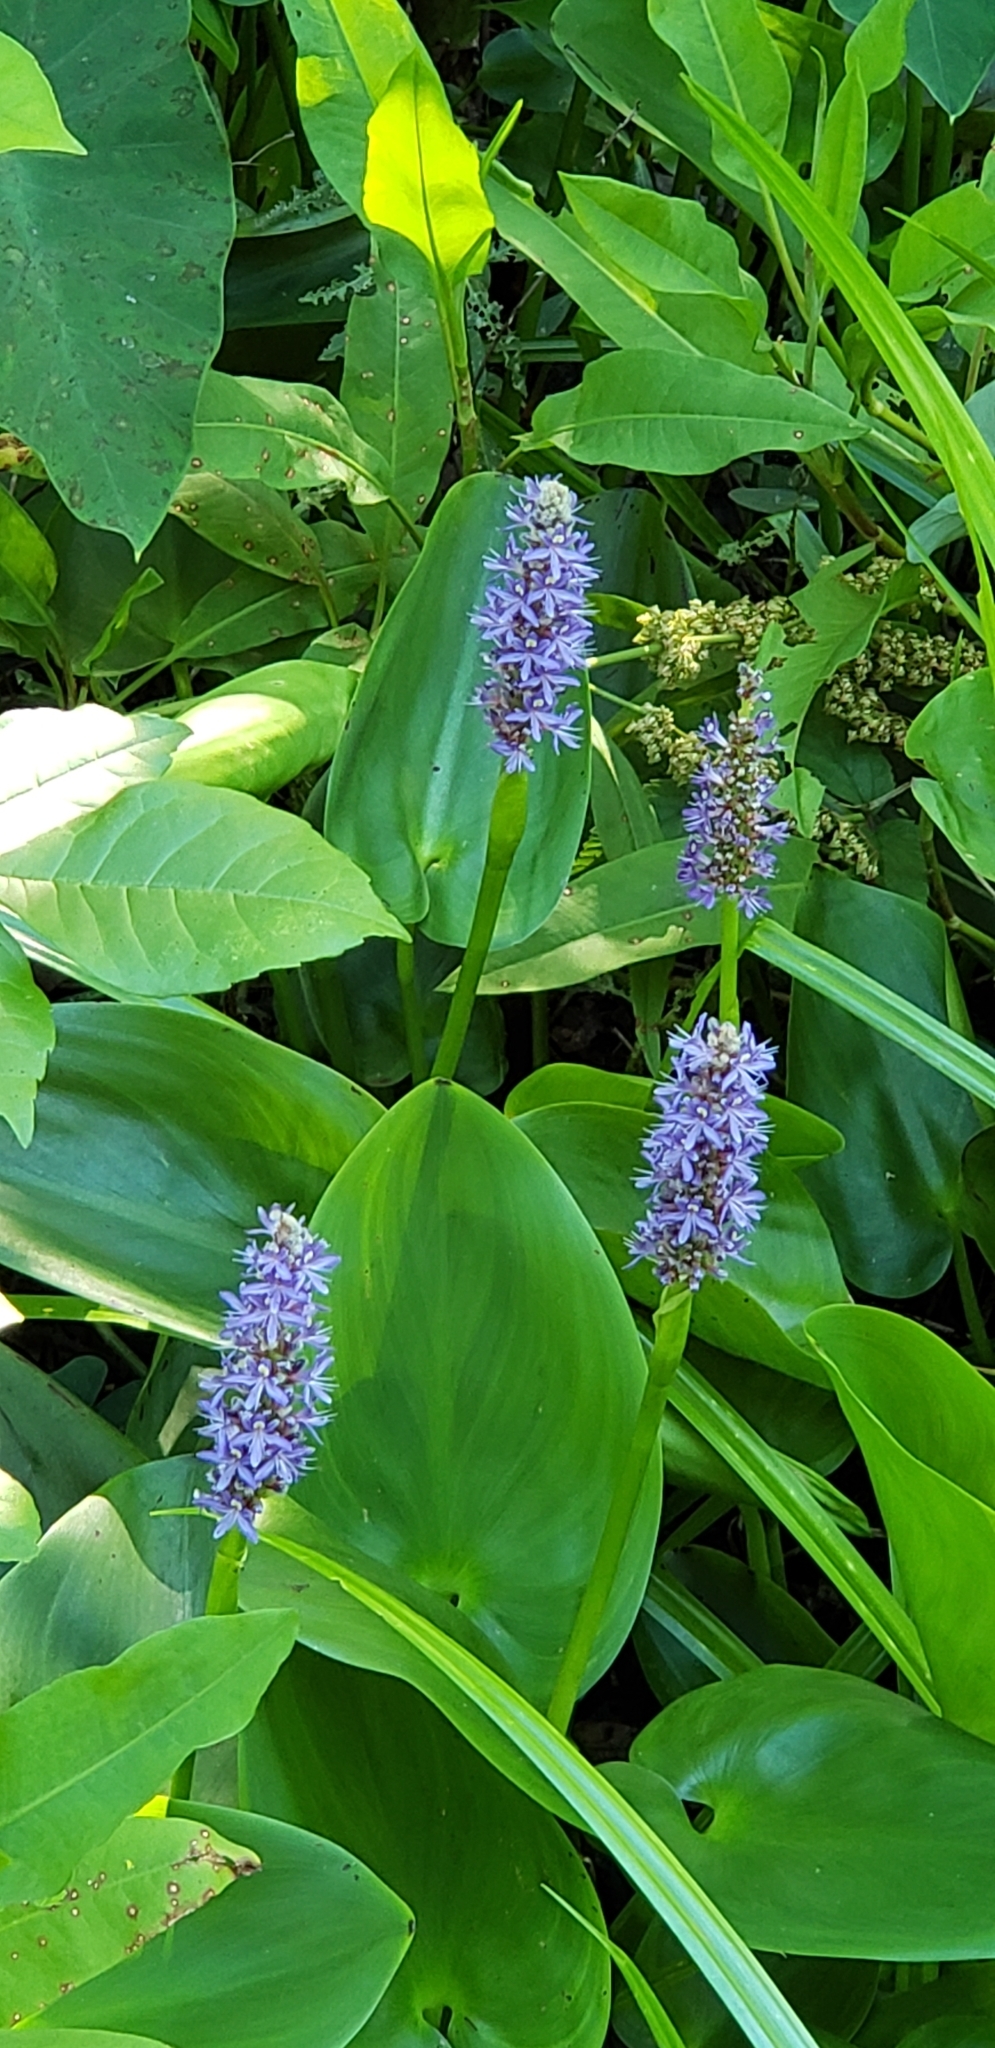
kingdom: Plantae
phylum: Tracheophyta
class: Liliopsida
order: Commelinales
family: Pontederiaceae
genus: Pontederia
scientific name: Pontederia cordata
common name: Pickerelweed
